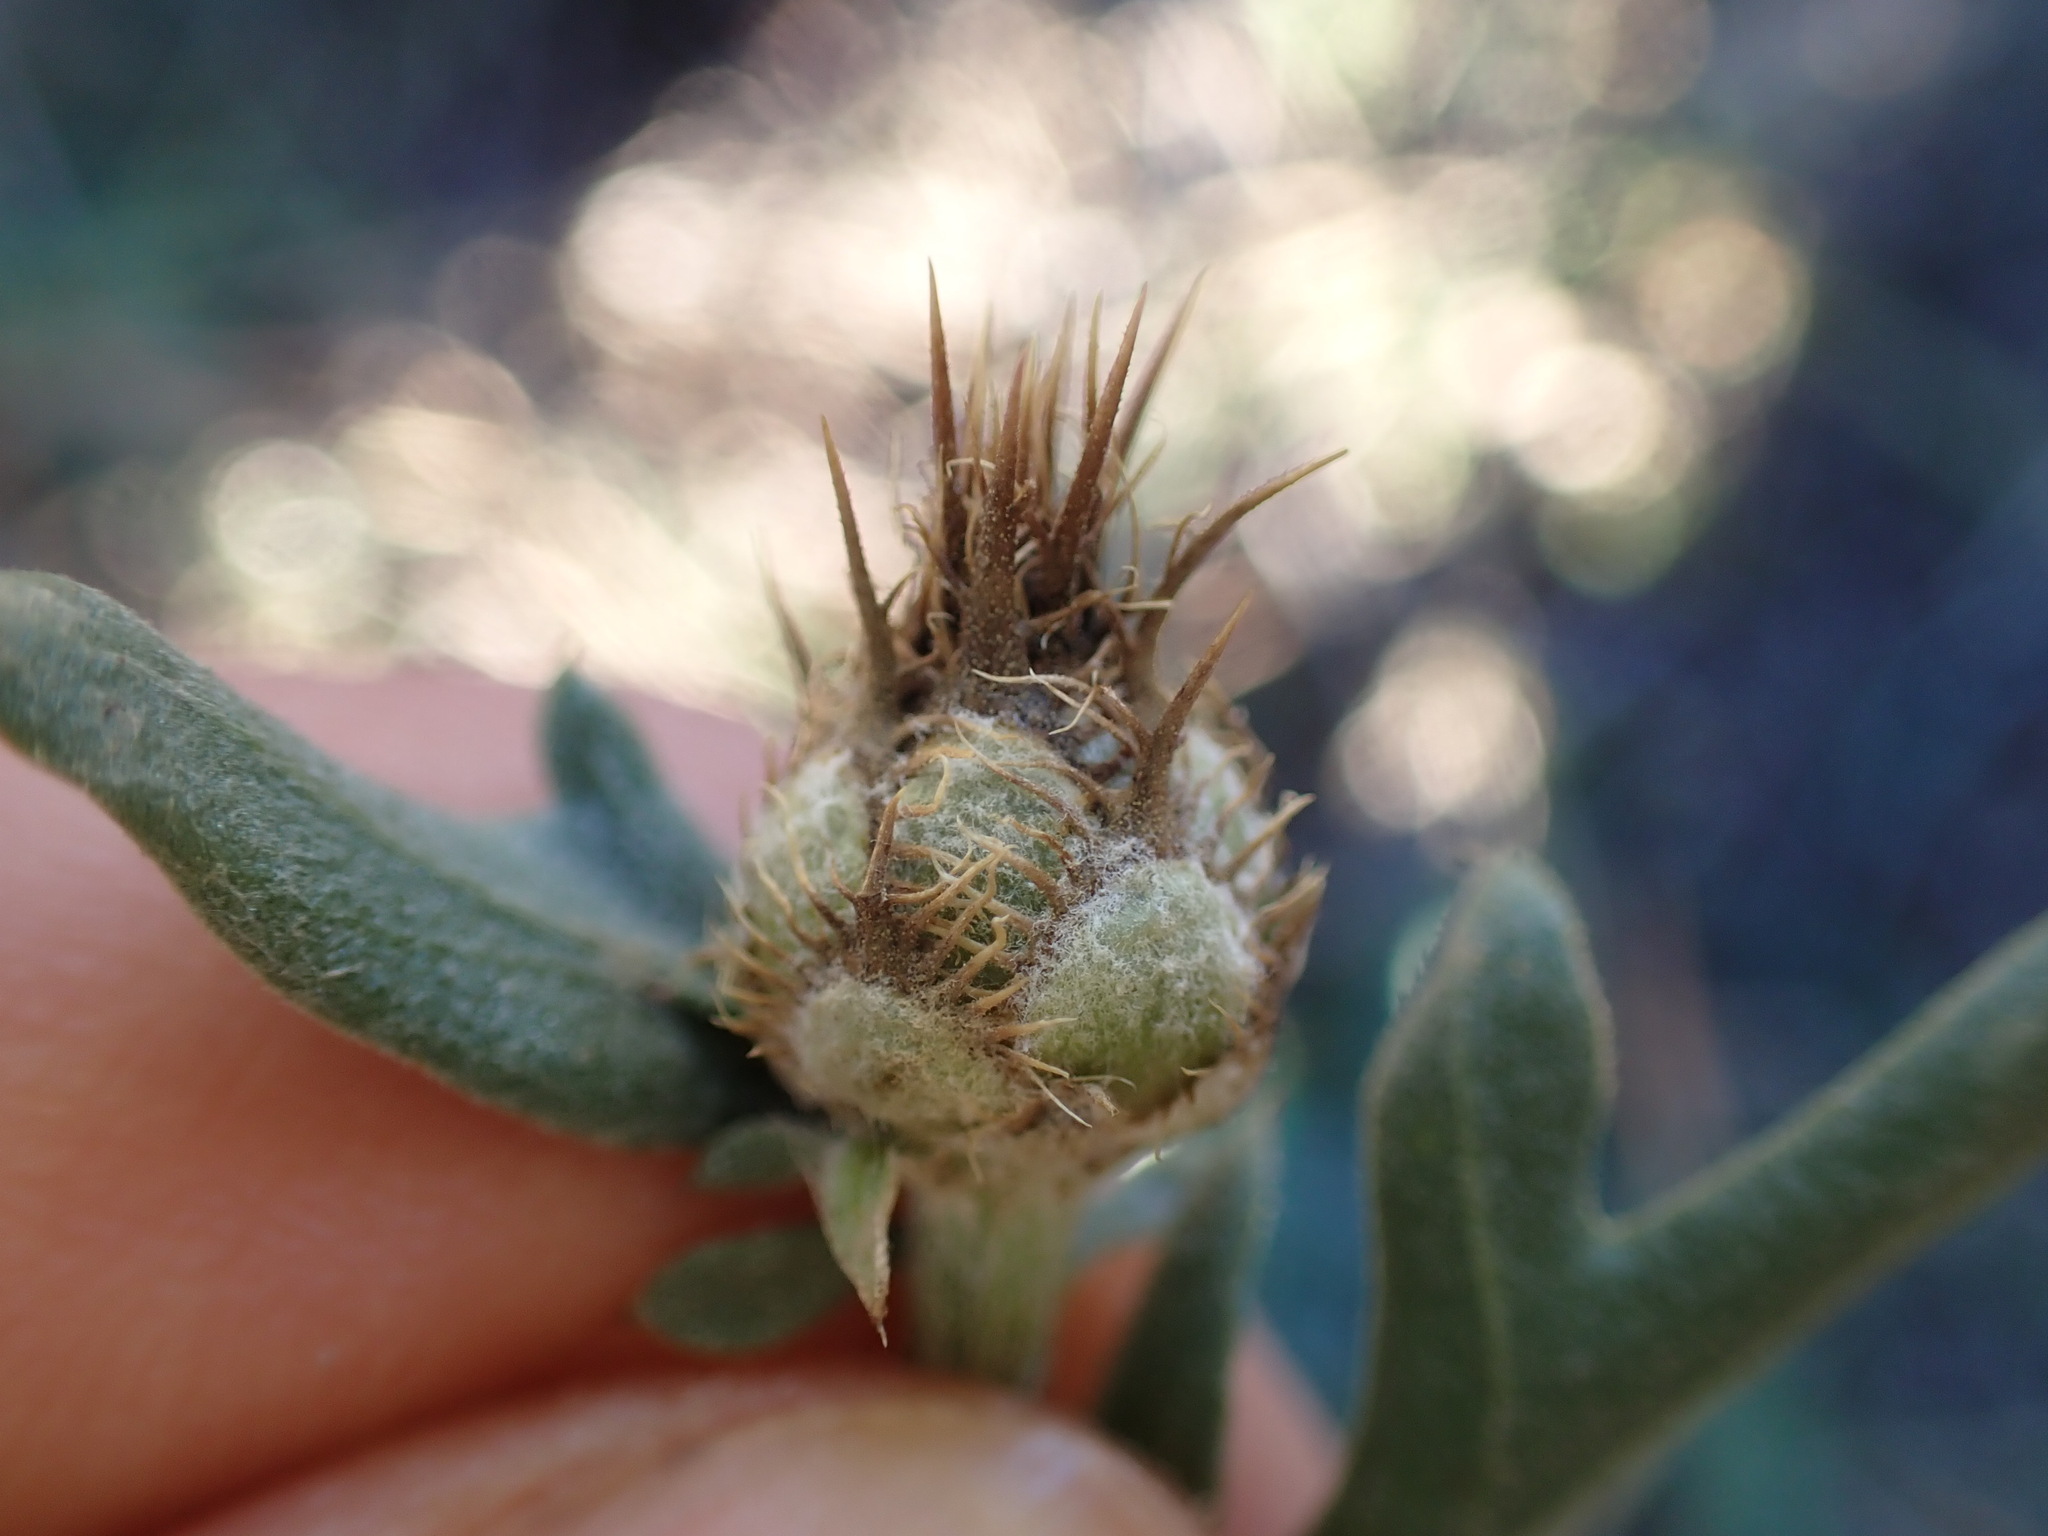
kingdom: Plantae
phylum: Tracheophyta
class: Magnoliopsida
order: Asterales
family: Asteraceae
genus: Centaurea
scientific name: Centaurea collina
